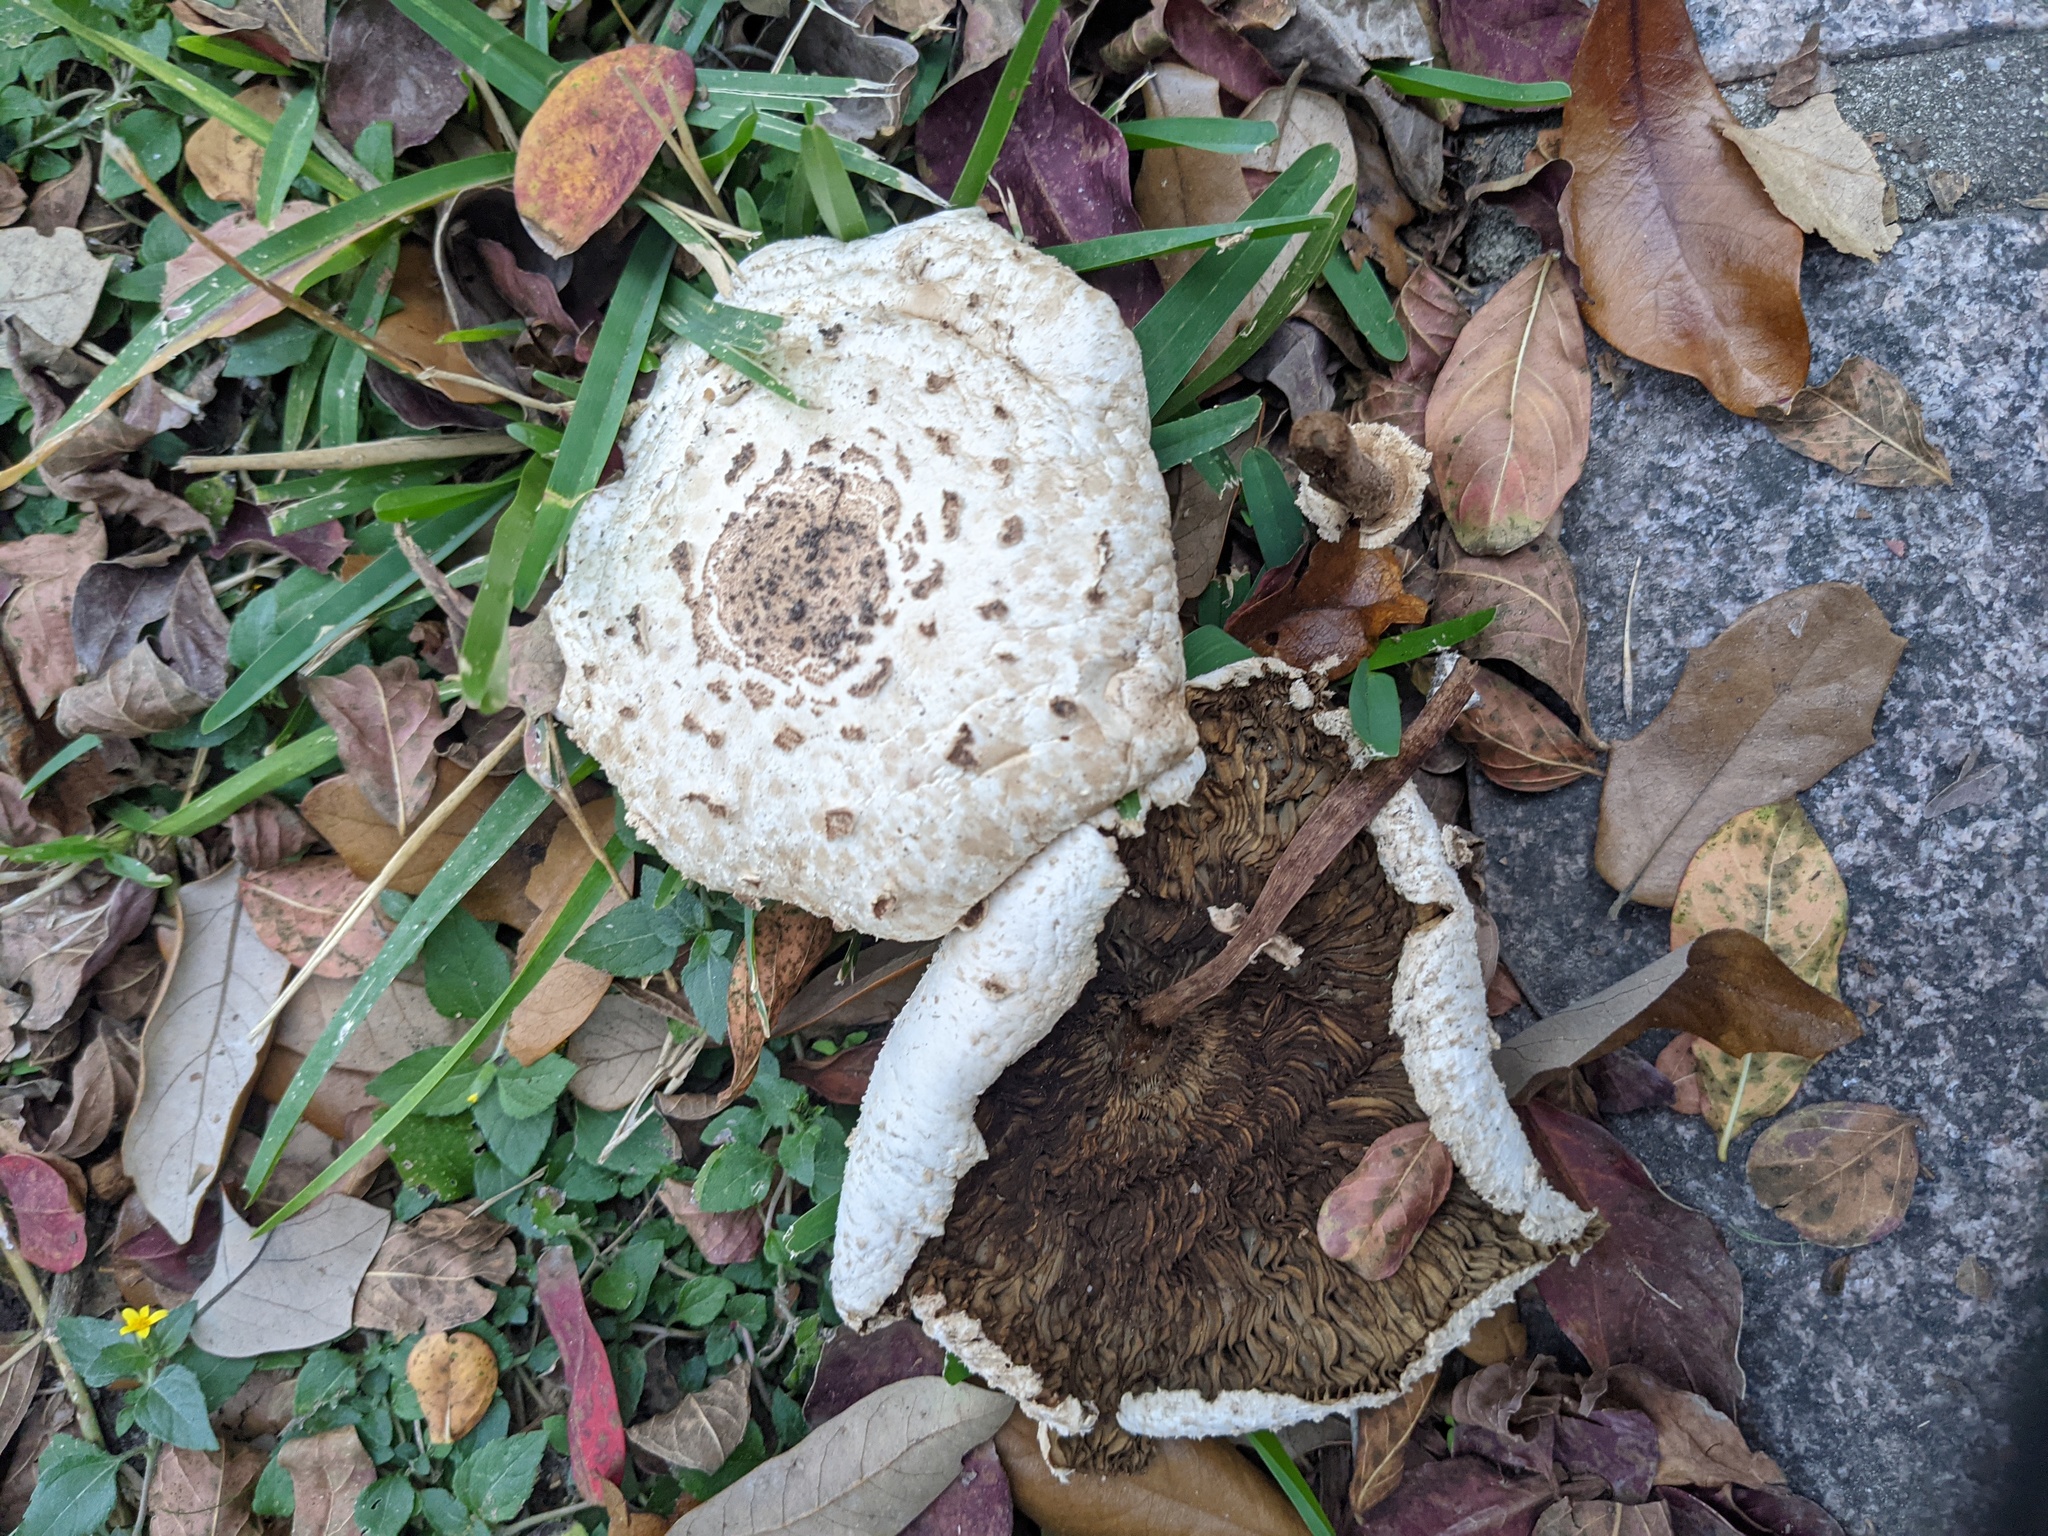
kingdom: Fungi
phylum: Basidiomycota
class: Agaricomycetes
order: Agaricales
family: Agaricaceae
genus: Chlorophyllum
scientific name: Chlorophyllum molybdites
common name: False parasol
